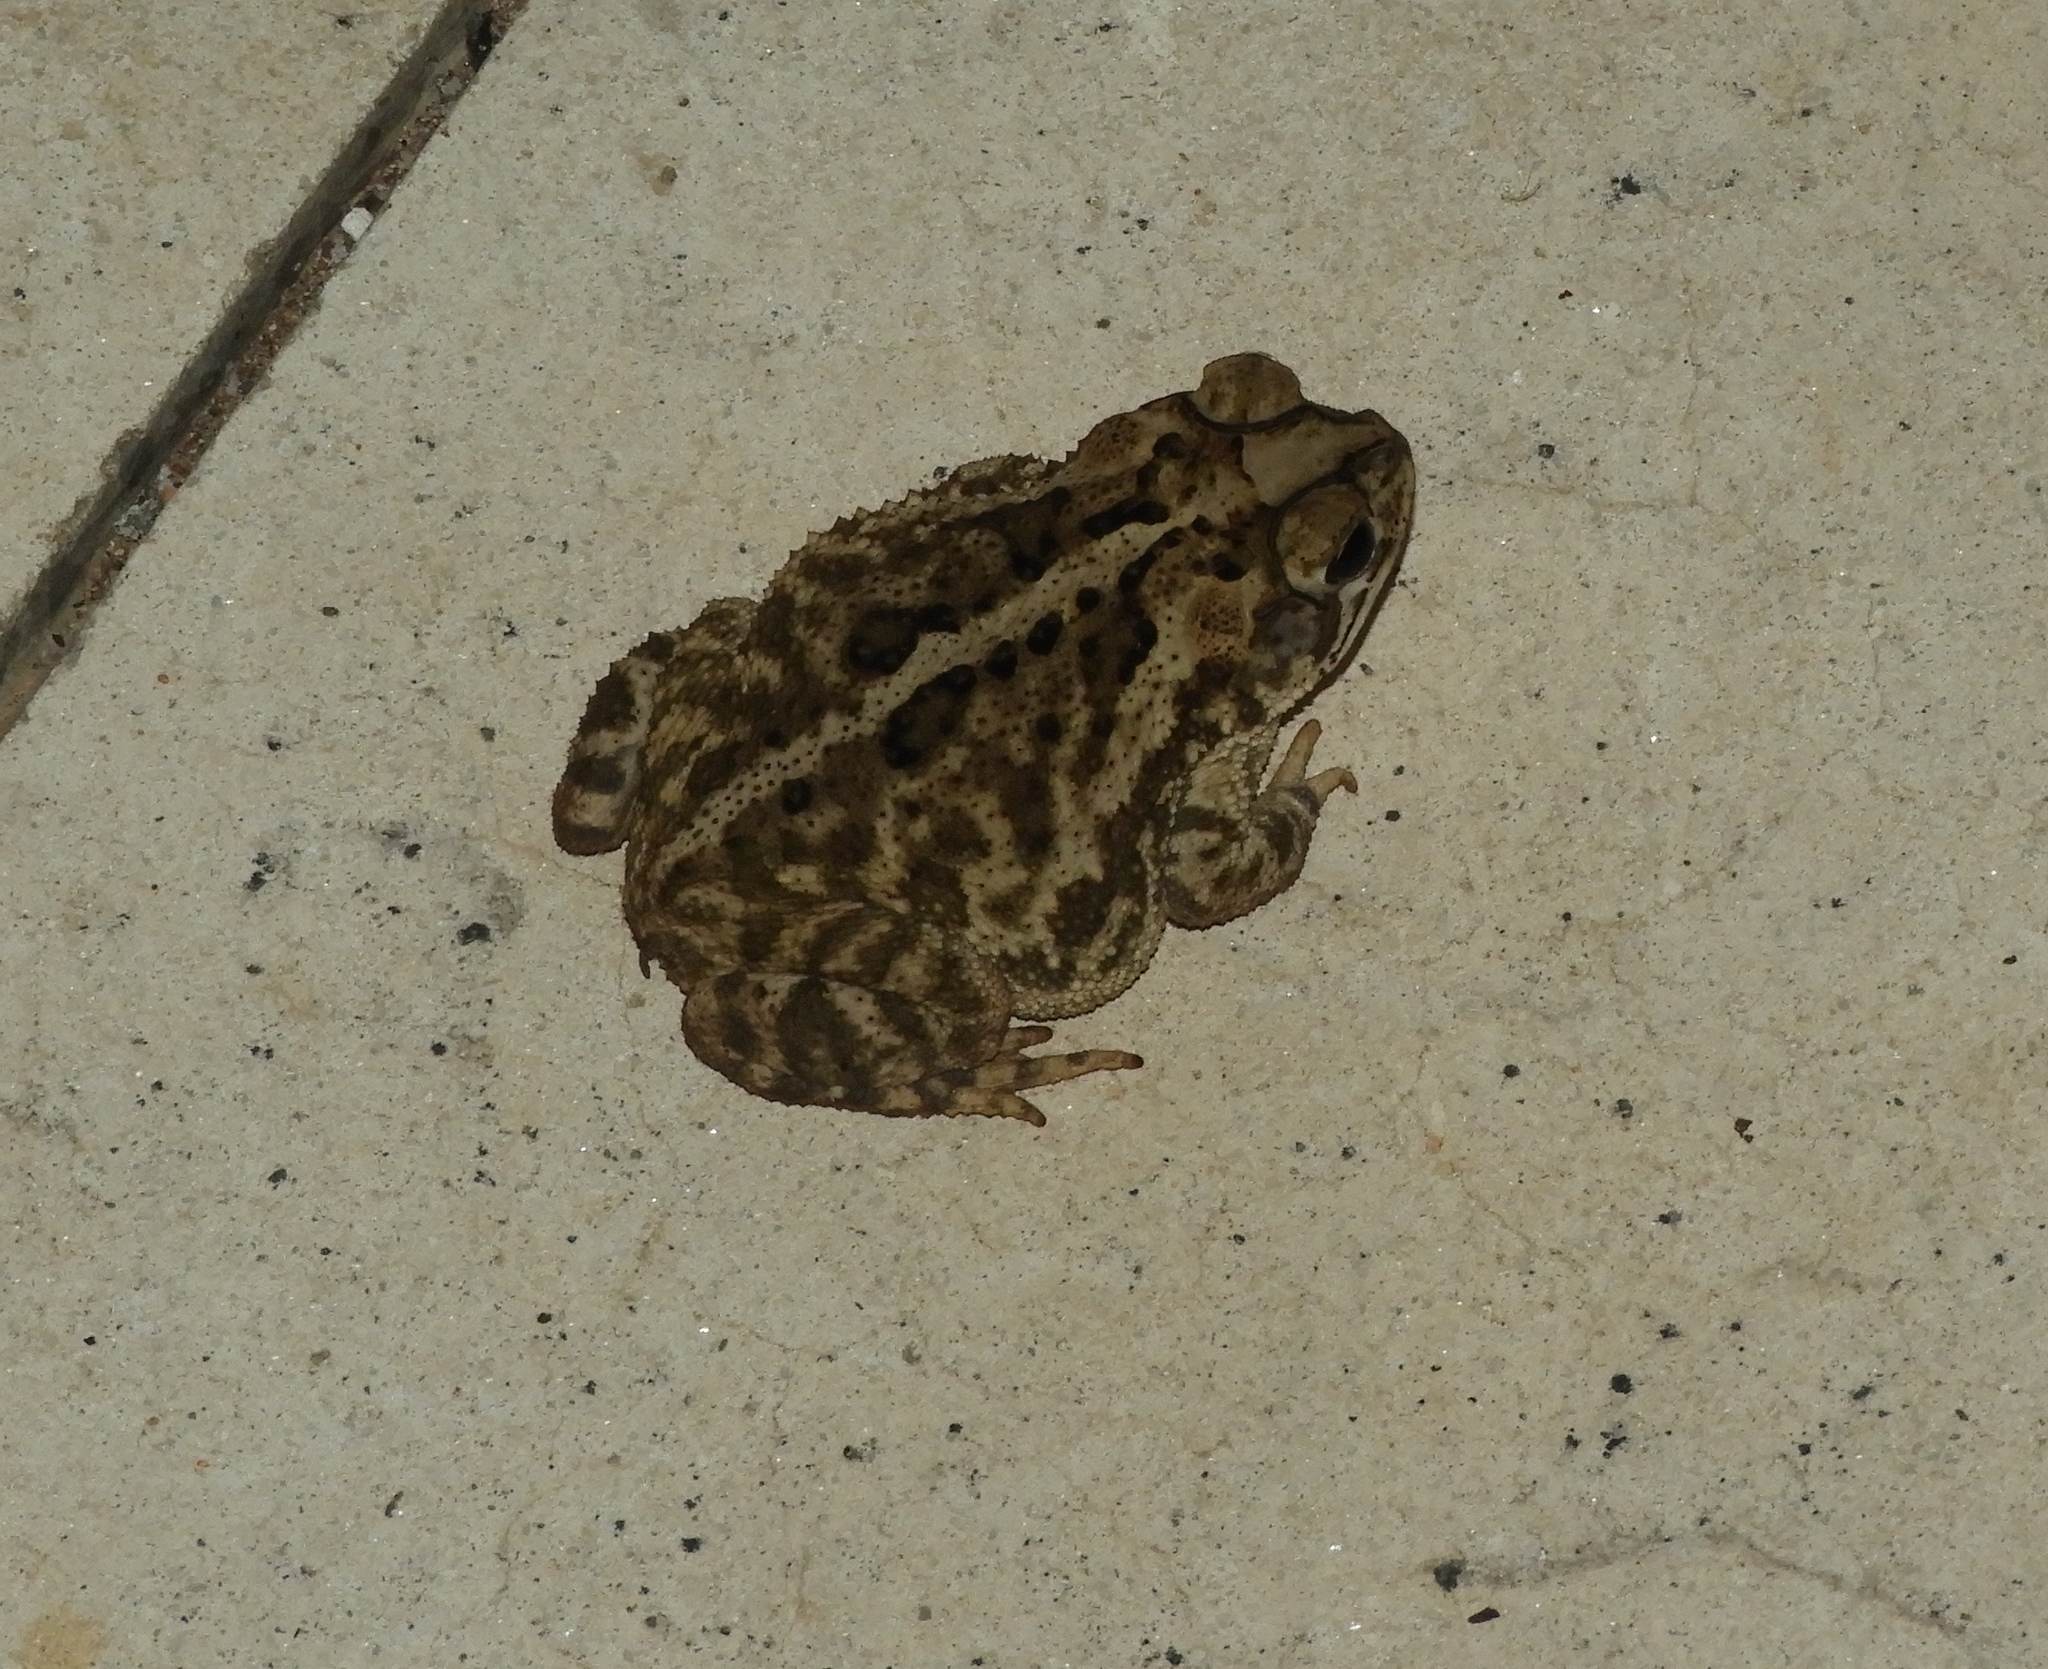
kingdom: Animalia
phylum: Chordata
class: Amphibia
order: Anura
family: Bufonidae
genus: Incilius
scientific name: Incilius mazatlanensis
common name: Sinaloa toad
